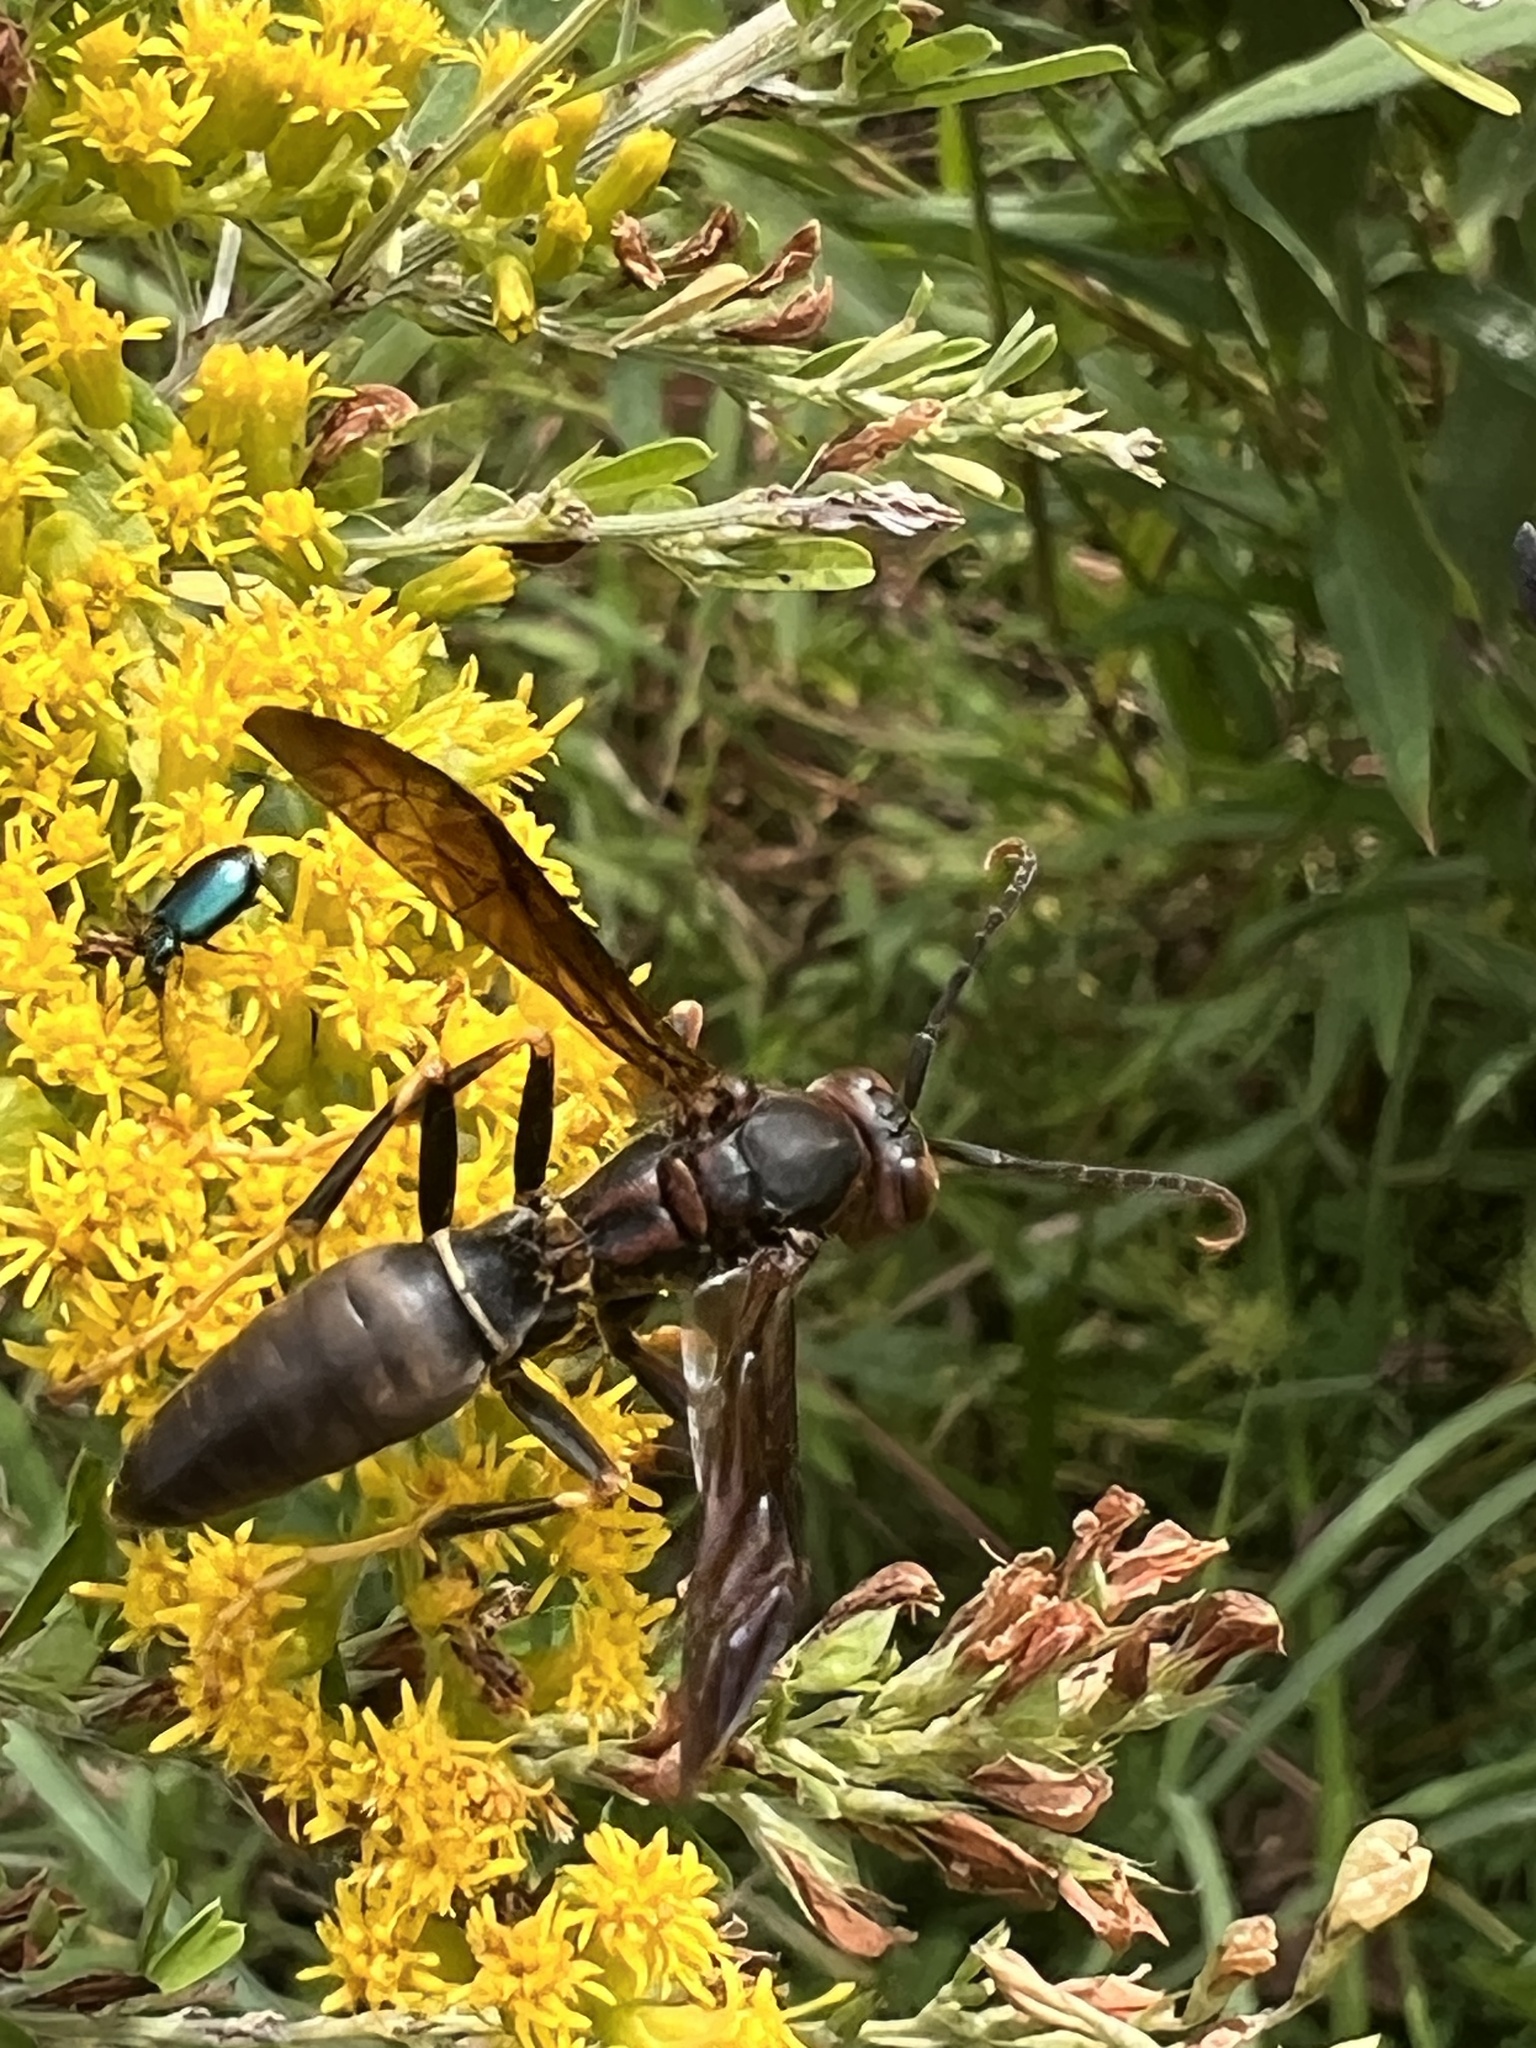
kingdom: Animalia
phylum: Arthropoda
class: Insecta
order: Hymenoptera
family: Eumenidae
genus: Polistes
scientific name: Polistes parametricus
